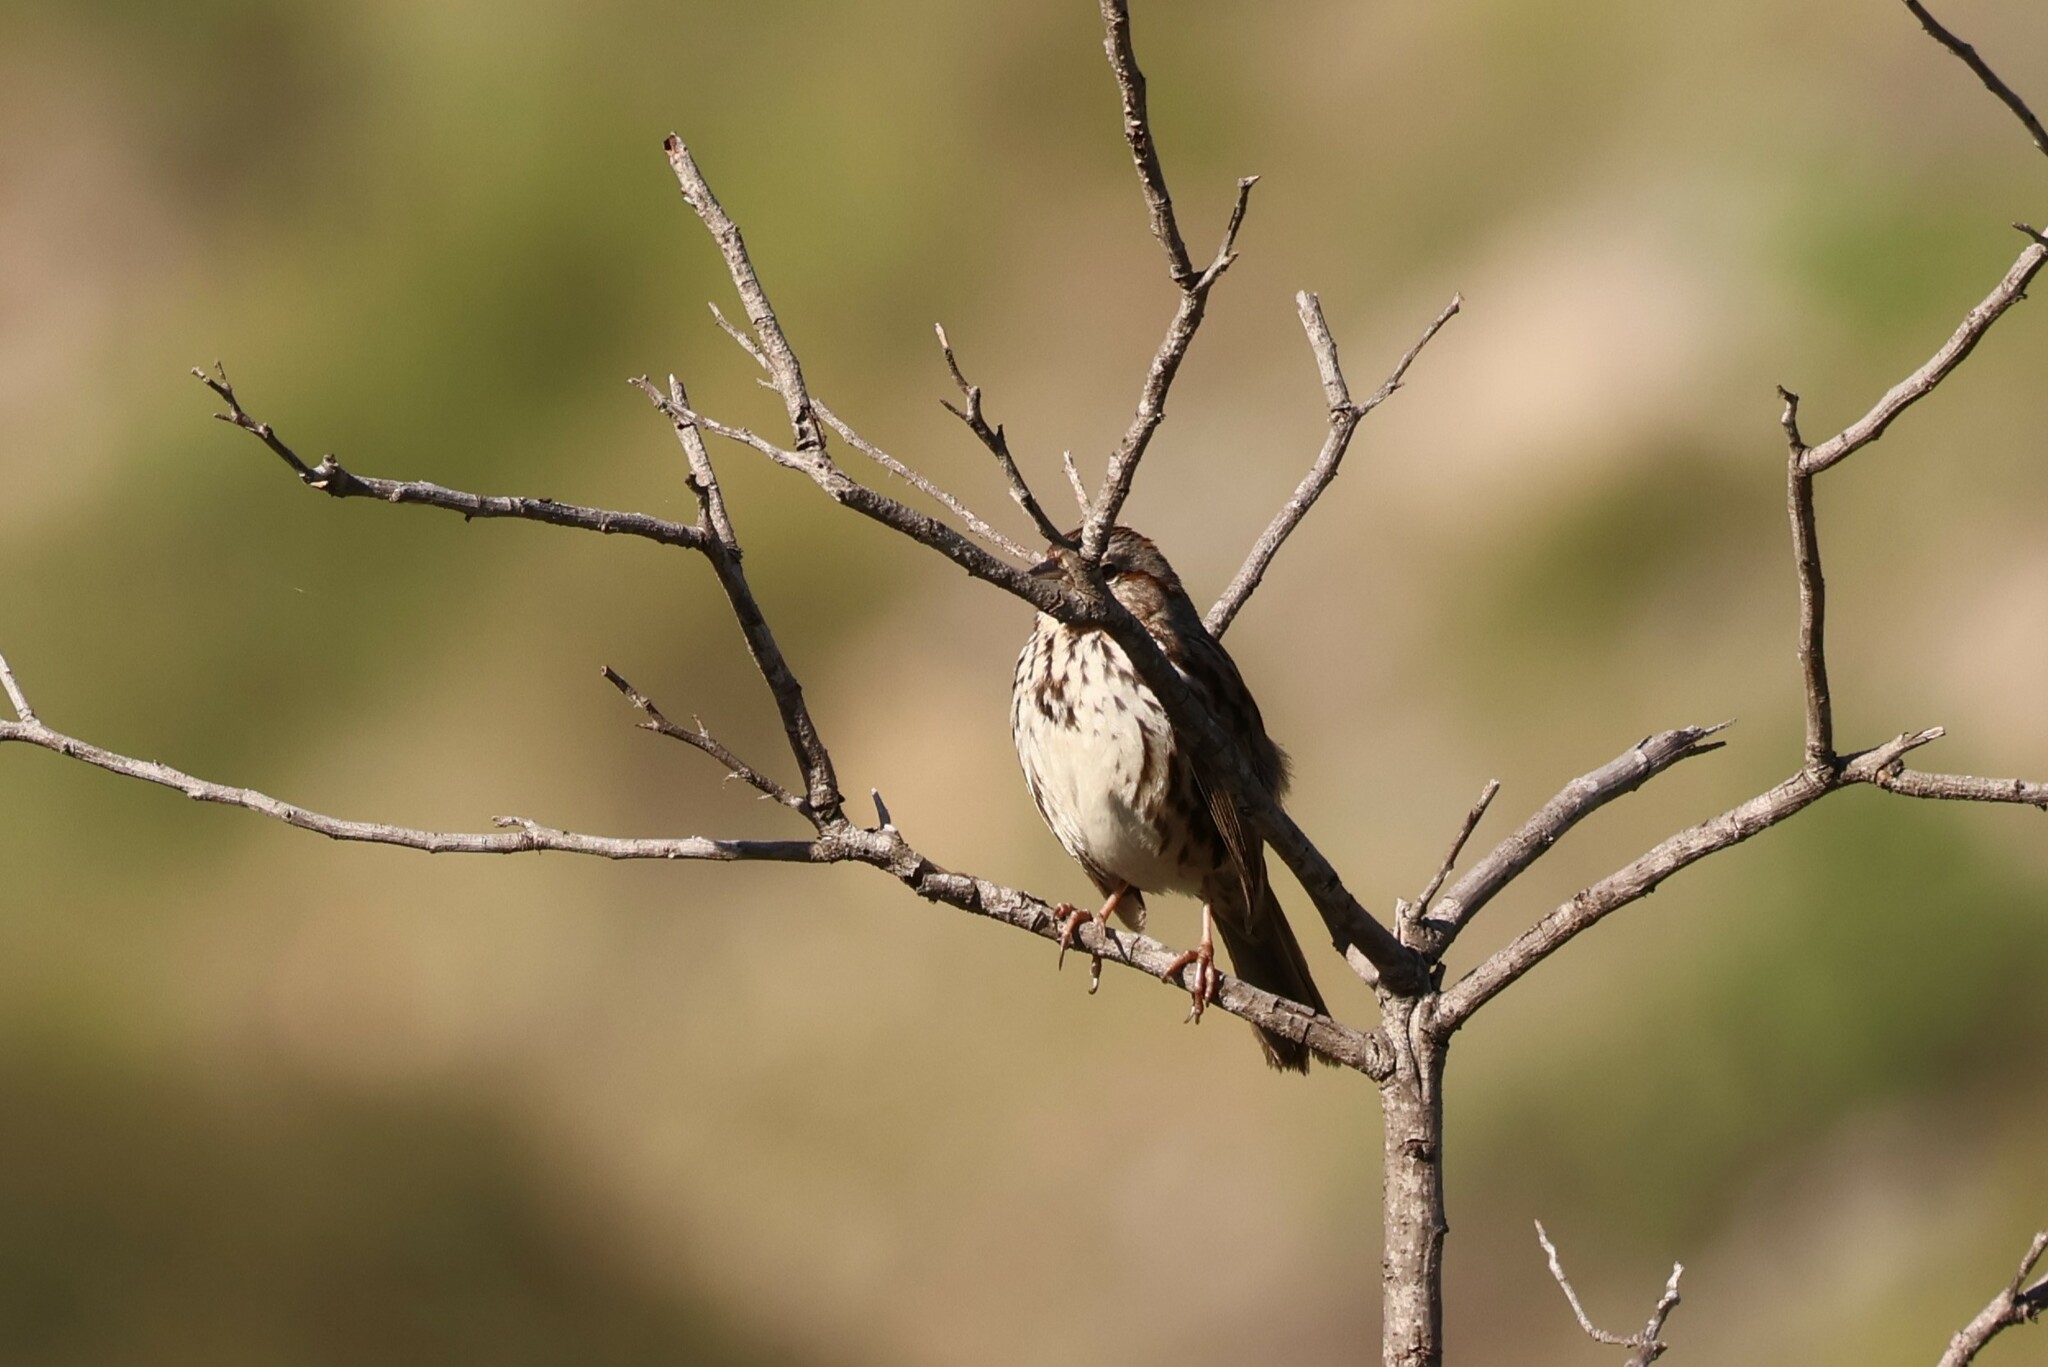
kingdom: Animalia
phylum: Chordata
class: Aves
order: Passeriformes
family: Passerellidae
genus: Melospiza
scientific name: Melospiza melodia
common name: Song sparrow
